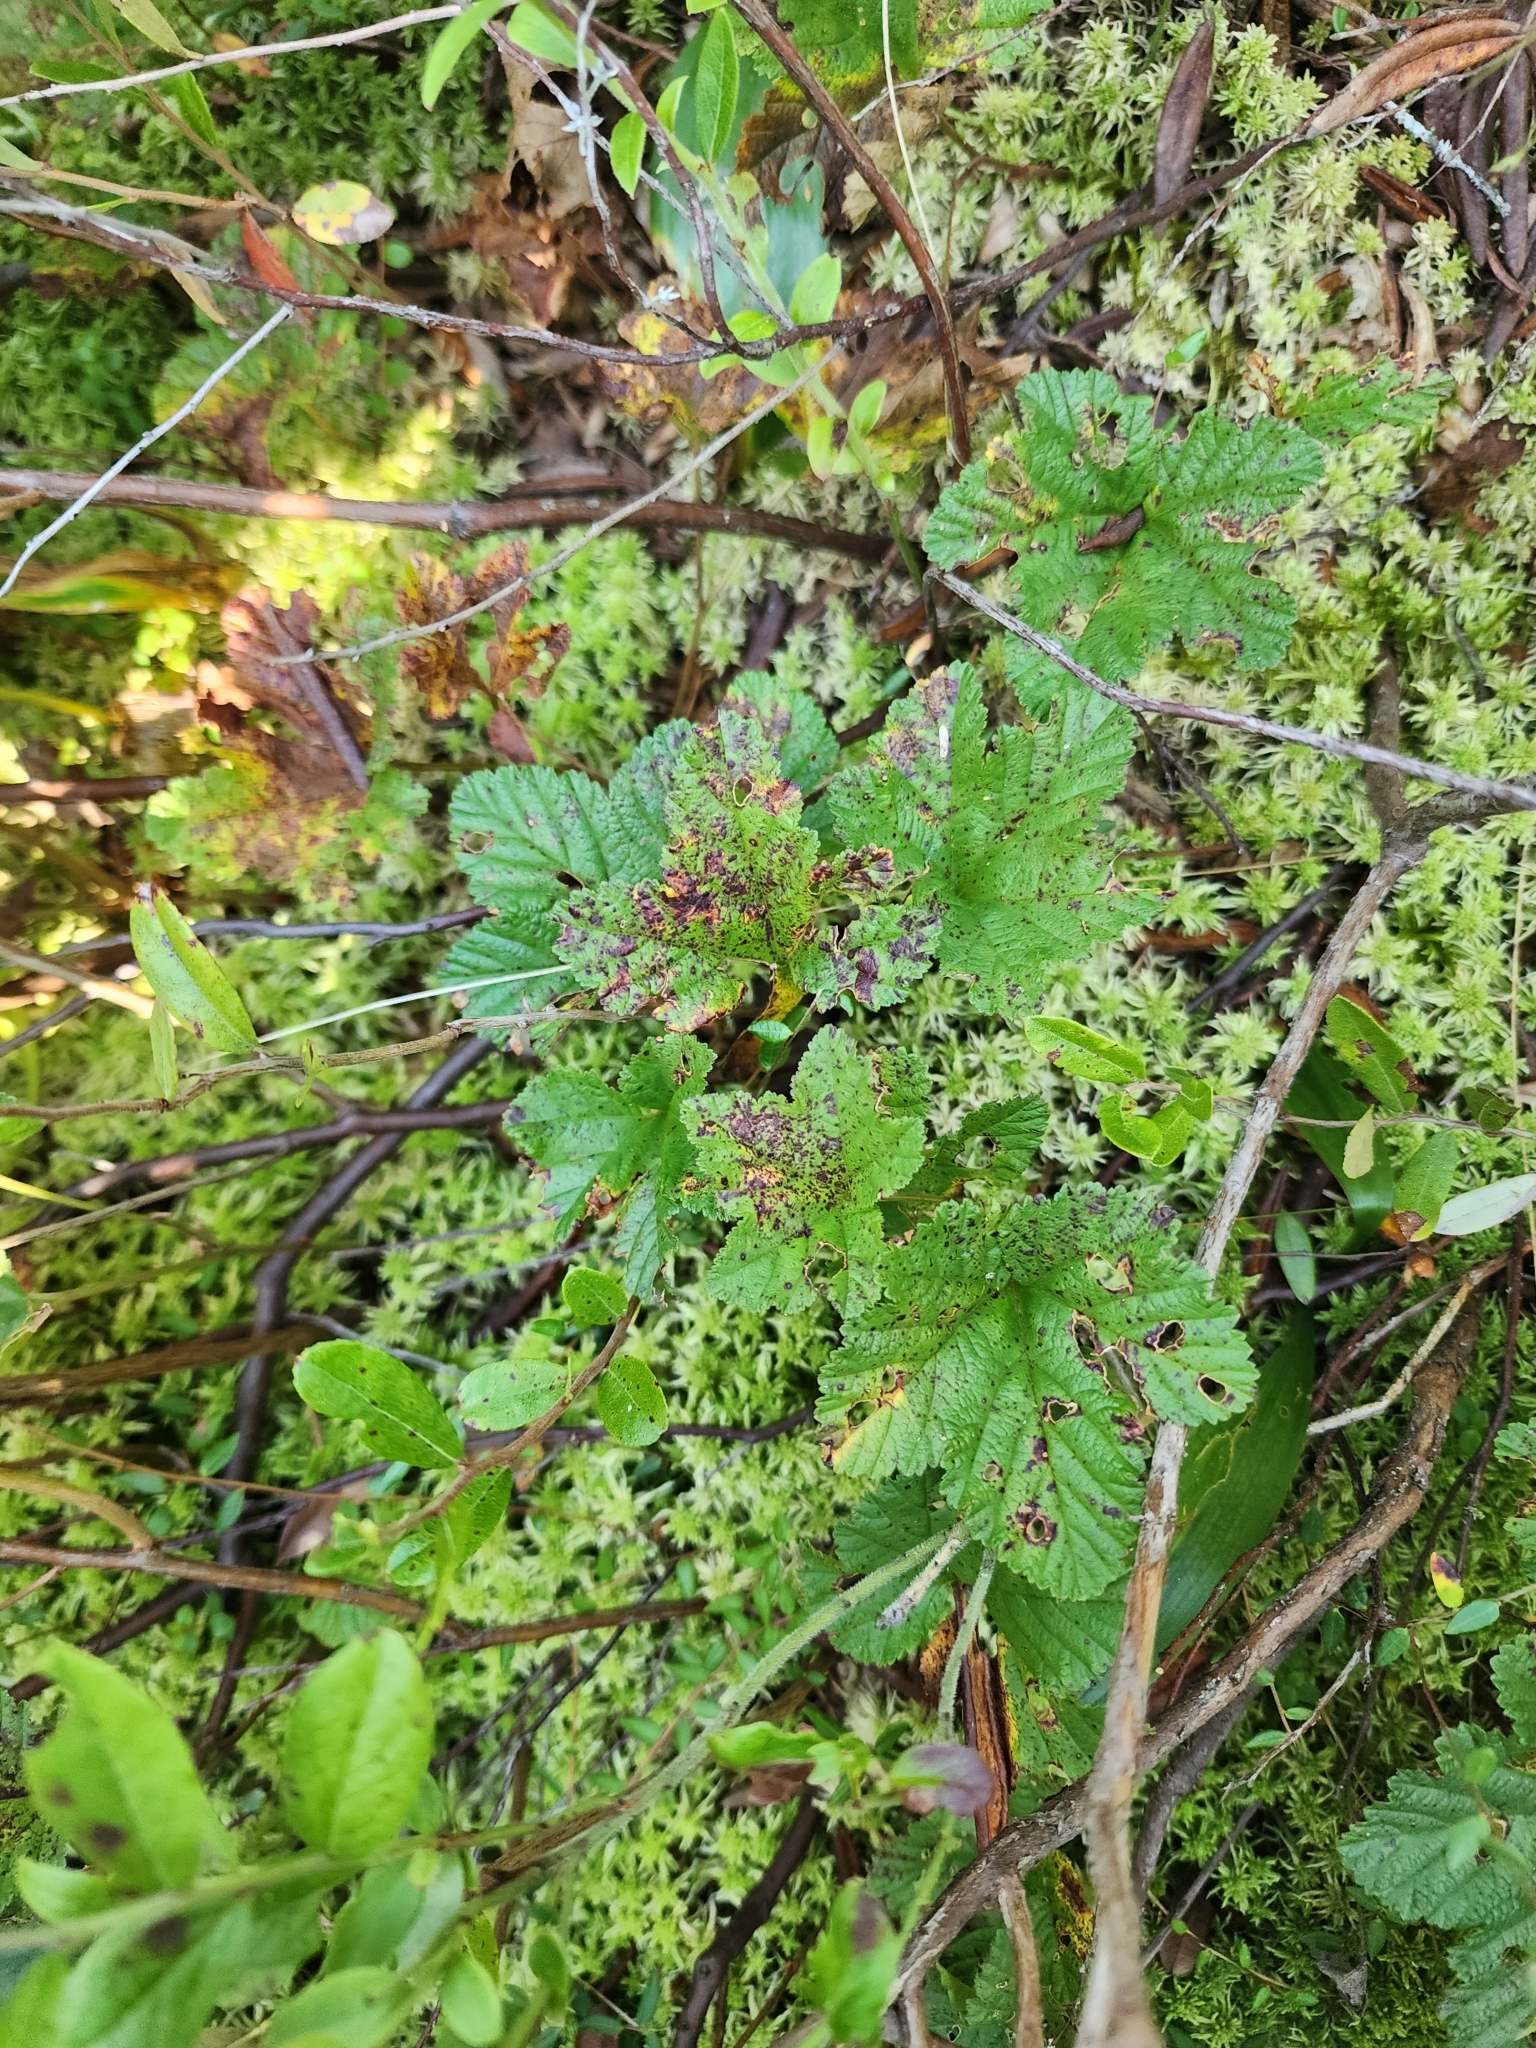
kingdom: Plantae
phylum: Tracheophyta
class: Magnoliopsida
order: Rosales
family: Rosaceae
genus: Rubus
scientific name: Rubus chamaemorus
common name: Cloudberry
